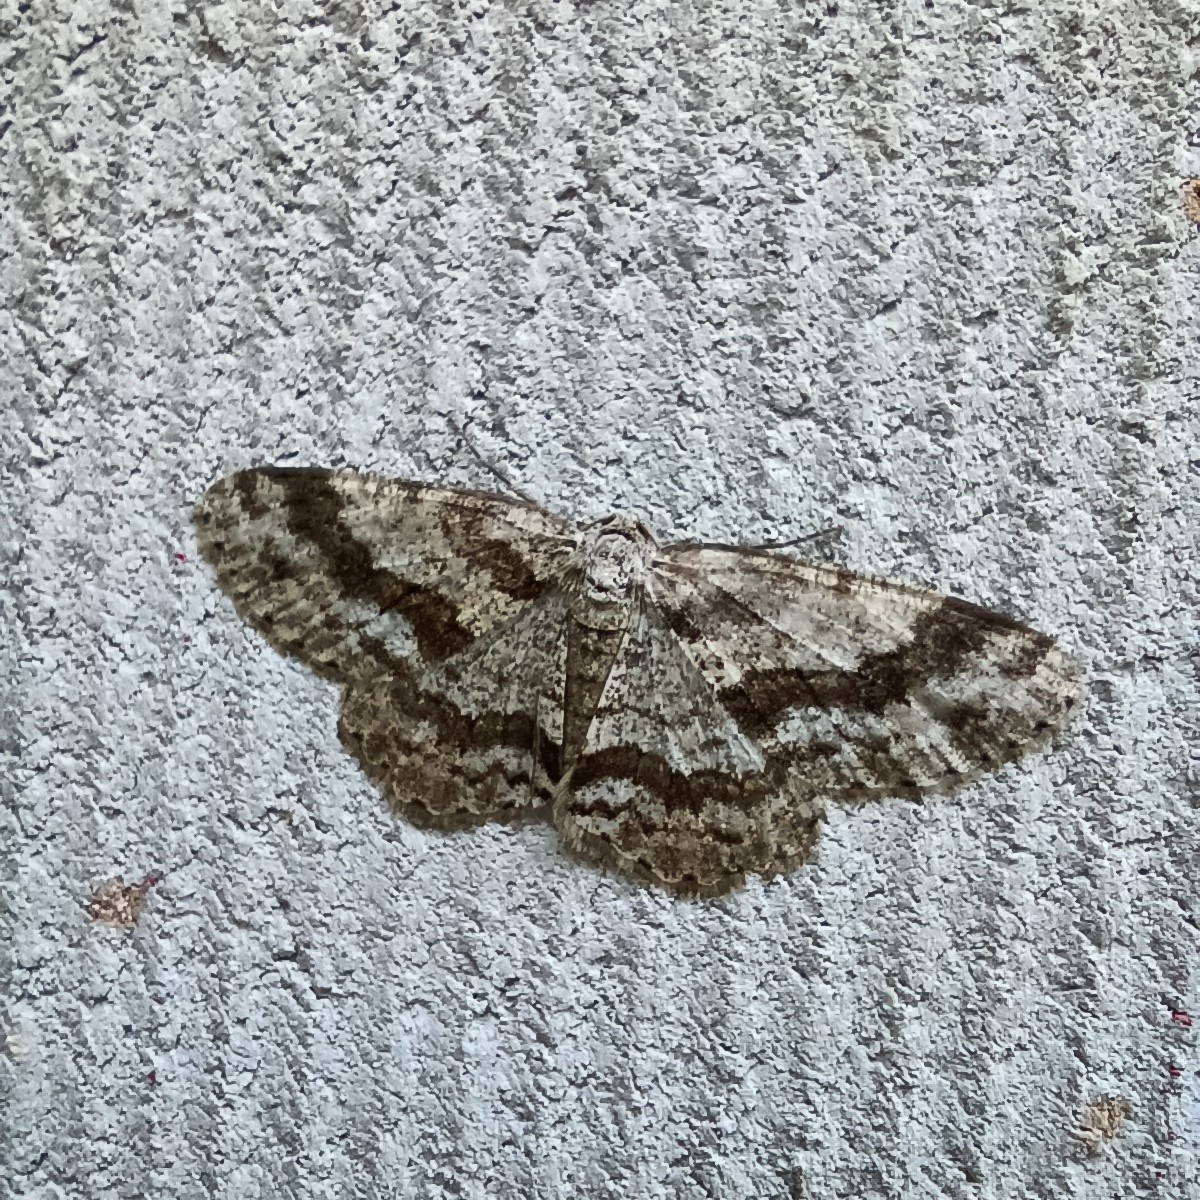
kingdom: Animalia
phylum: Arthropoda
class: Insecta
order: Lepidoptera
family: Geometridae
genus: Ectropis
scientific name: Ectropis crepuscularia
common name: Engrailed
